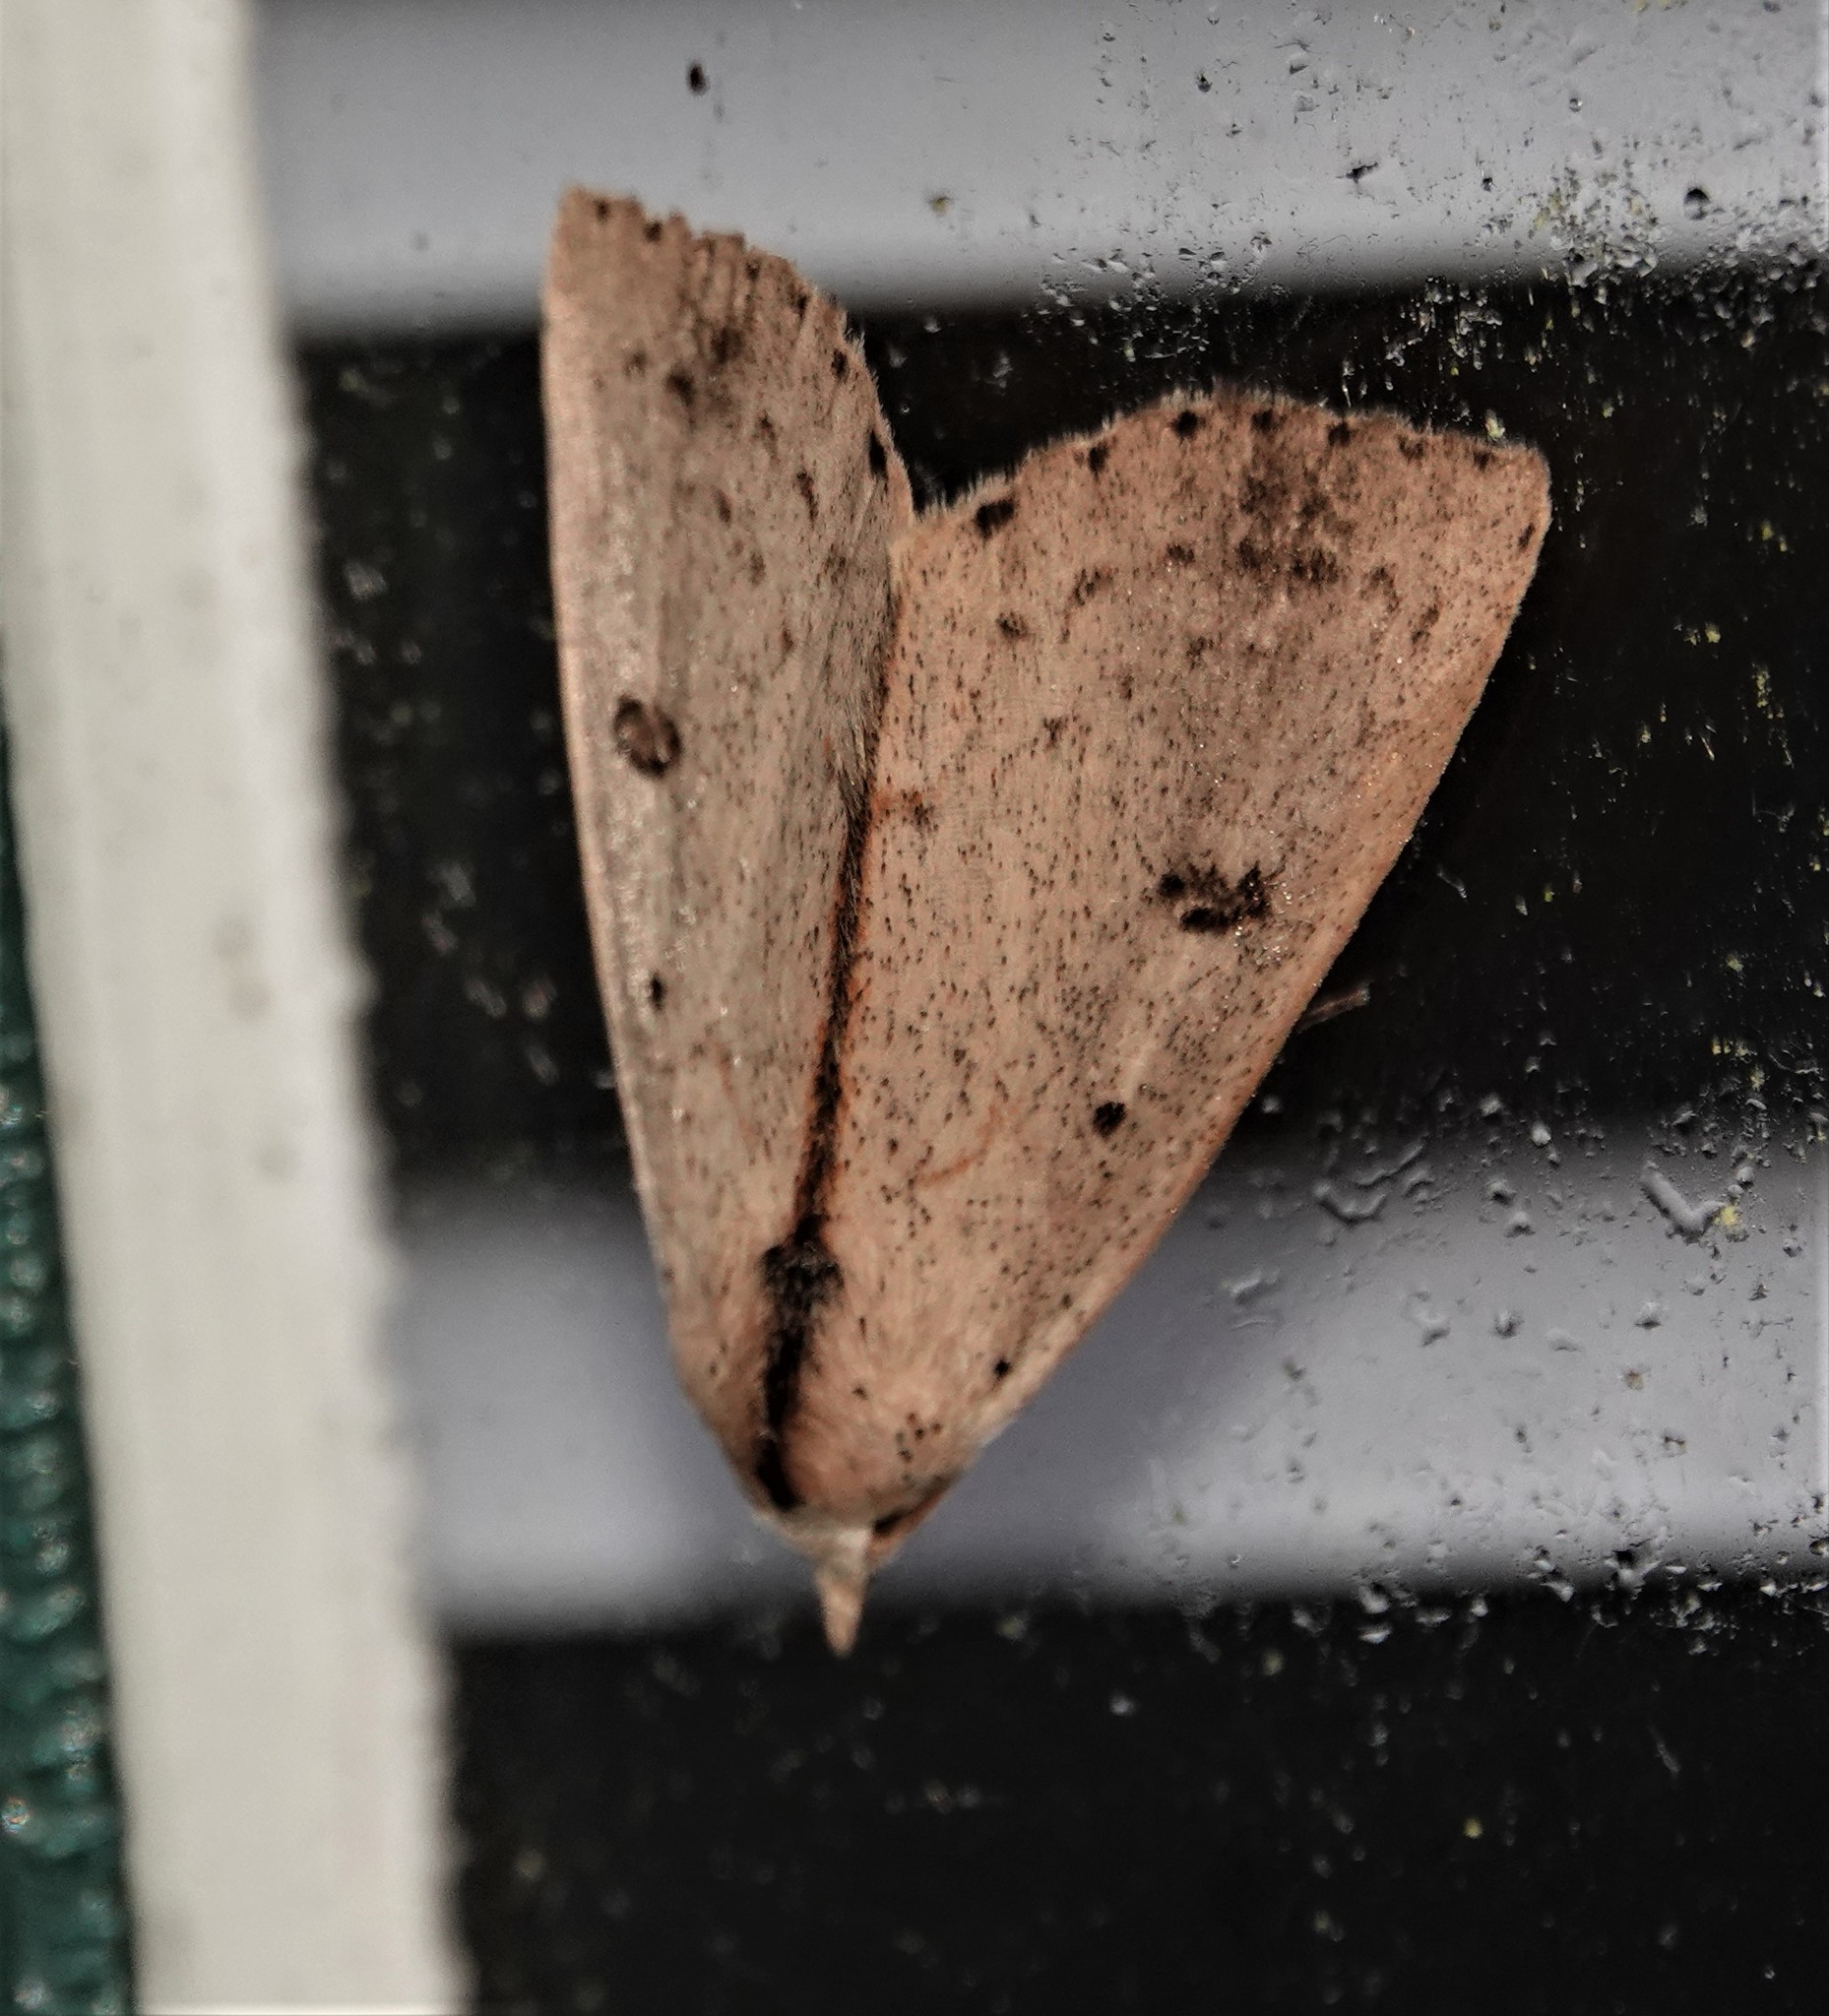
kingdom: Animalia
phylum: Arthropoda
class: Insecta
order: Lepidoptera
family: Erebidae
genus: Scolecocampa
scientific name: Scolecocampa liburna
